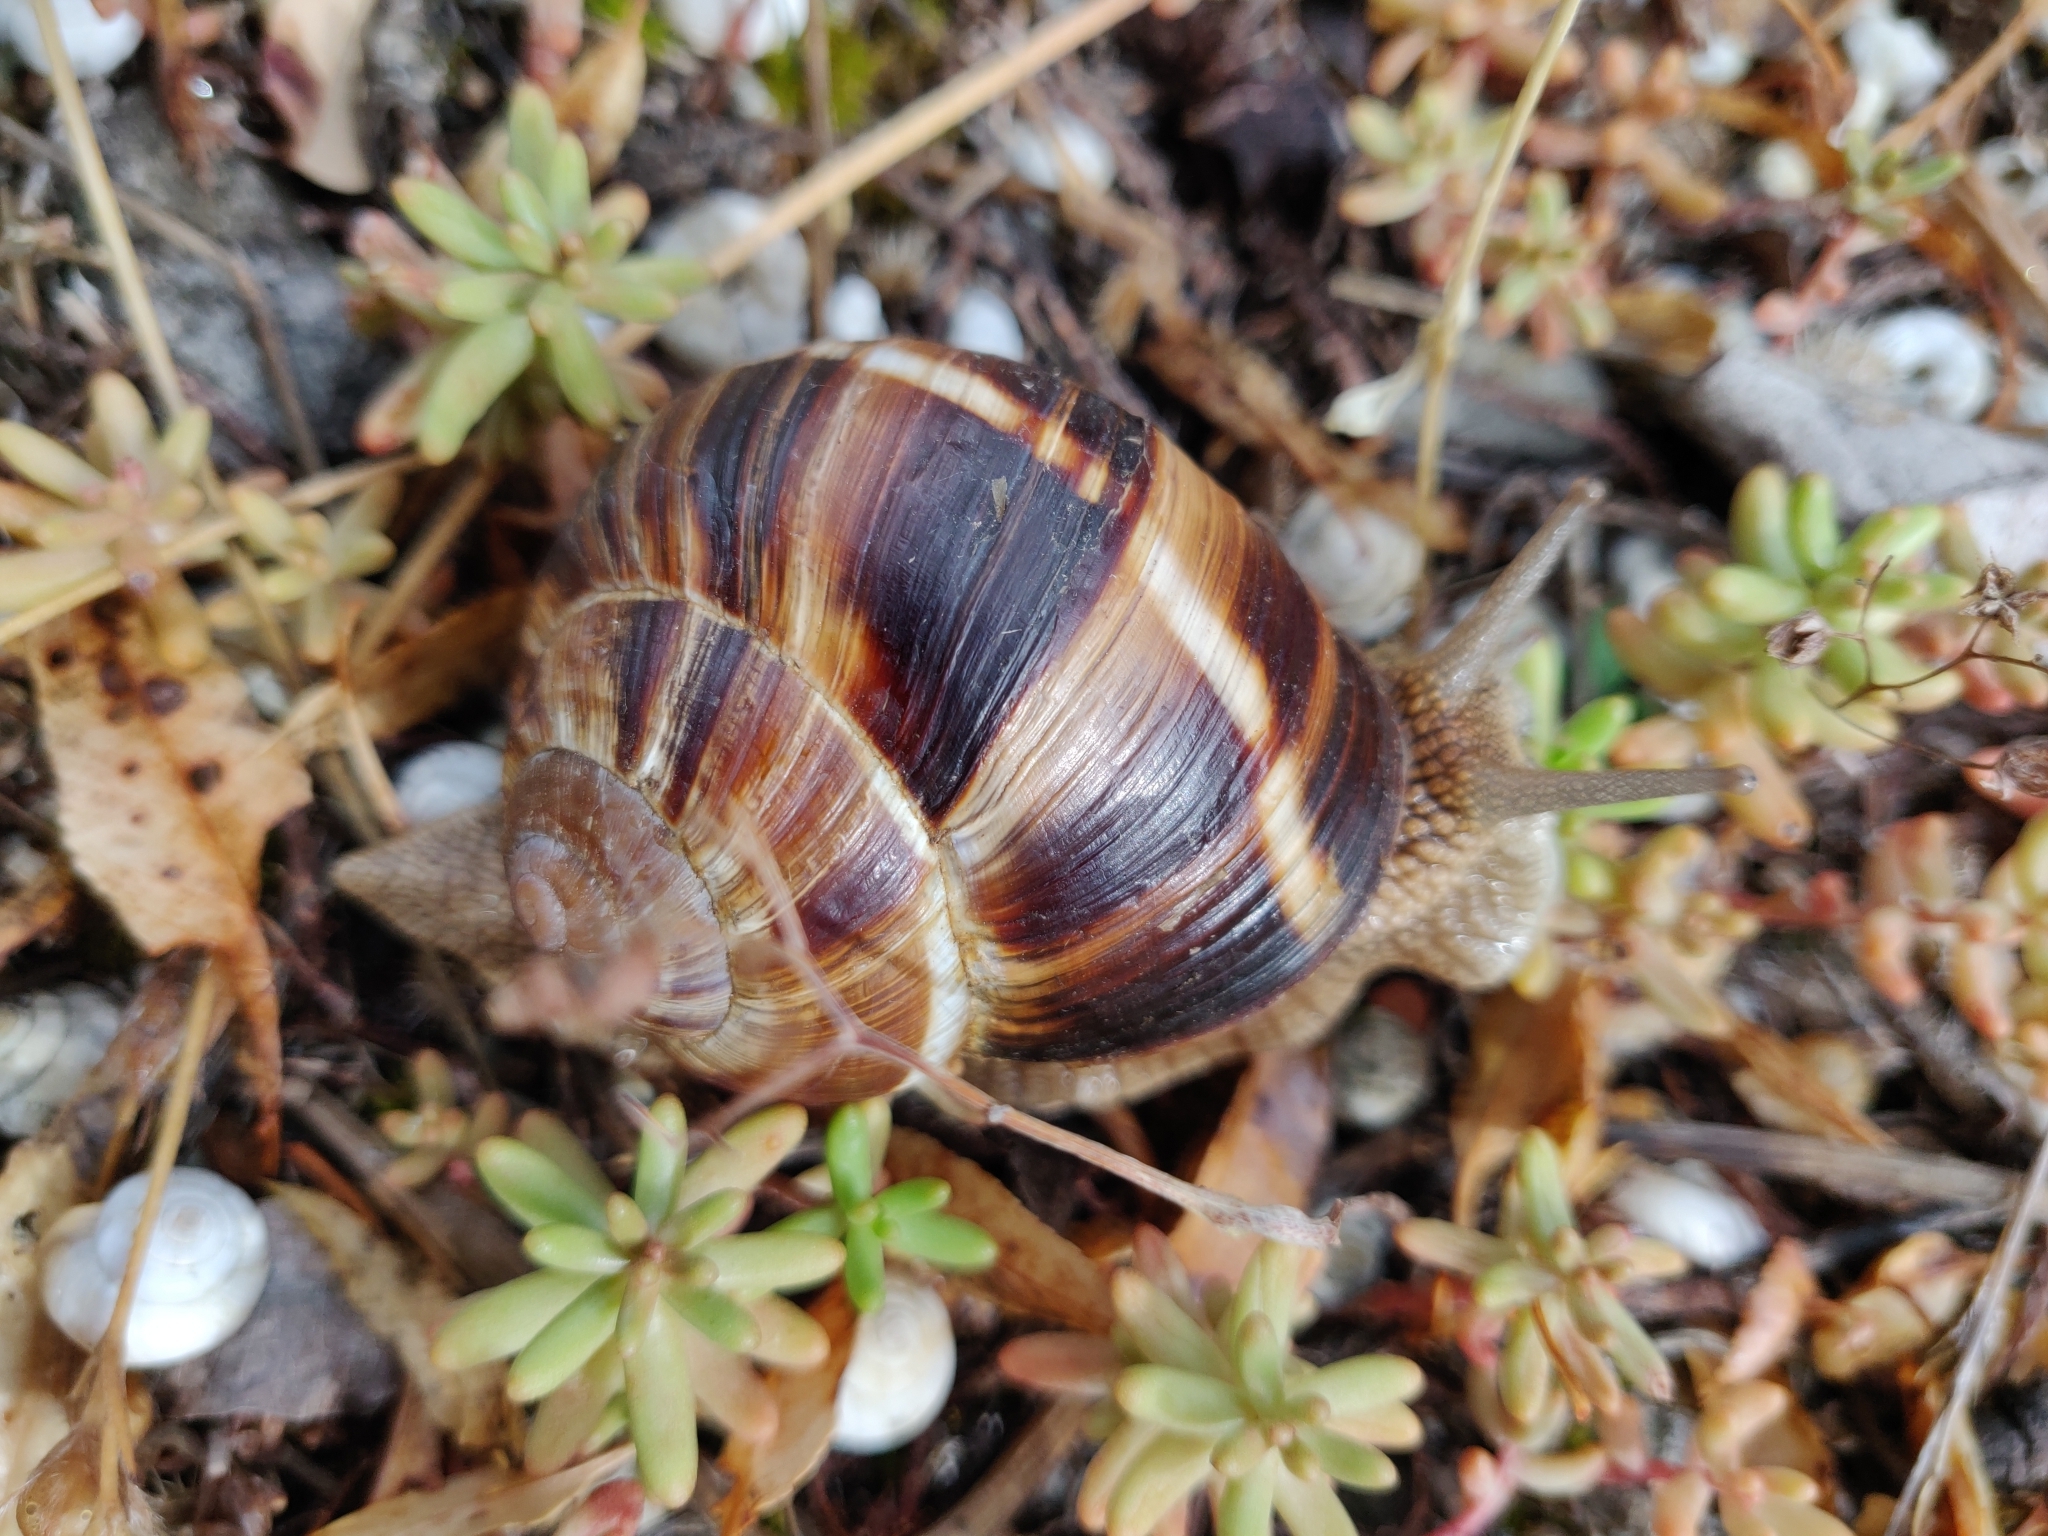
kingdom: Animalia
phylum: Mollusca
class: Gastropoda
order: Stylommatophora
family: Helicidae
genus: Helix
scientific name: Helix lucorum
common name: Turkish snail
